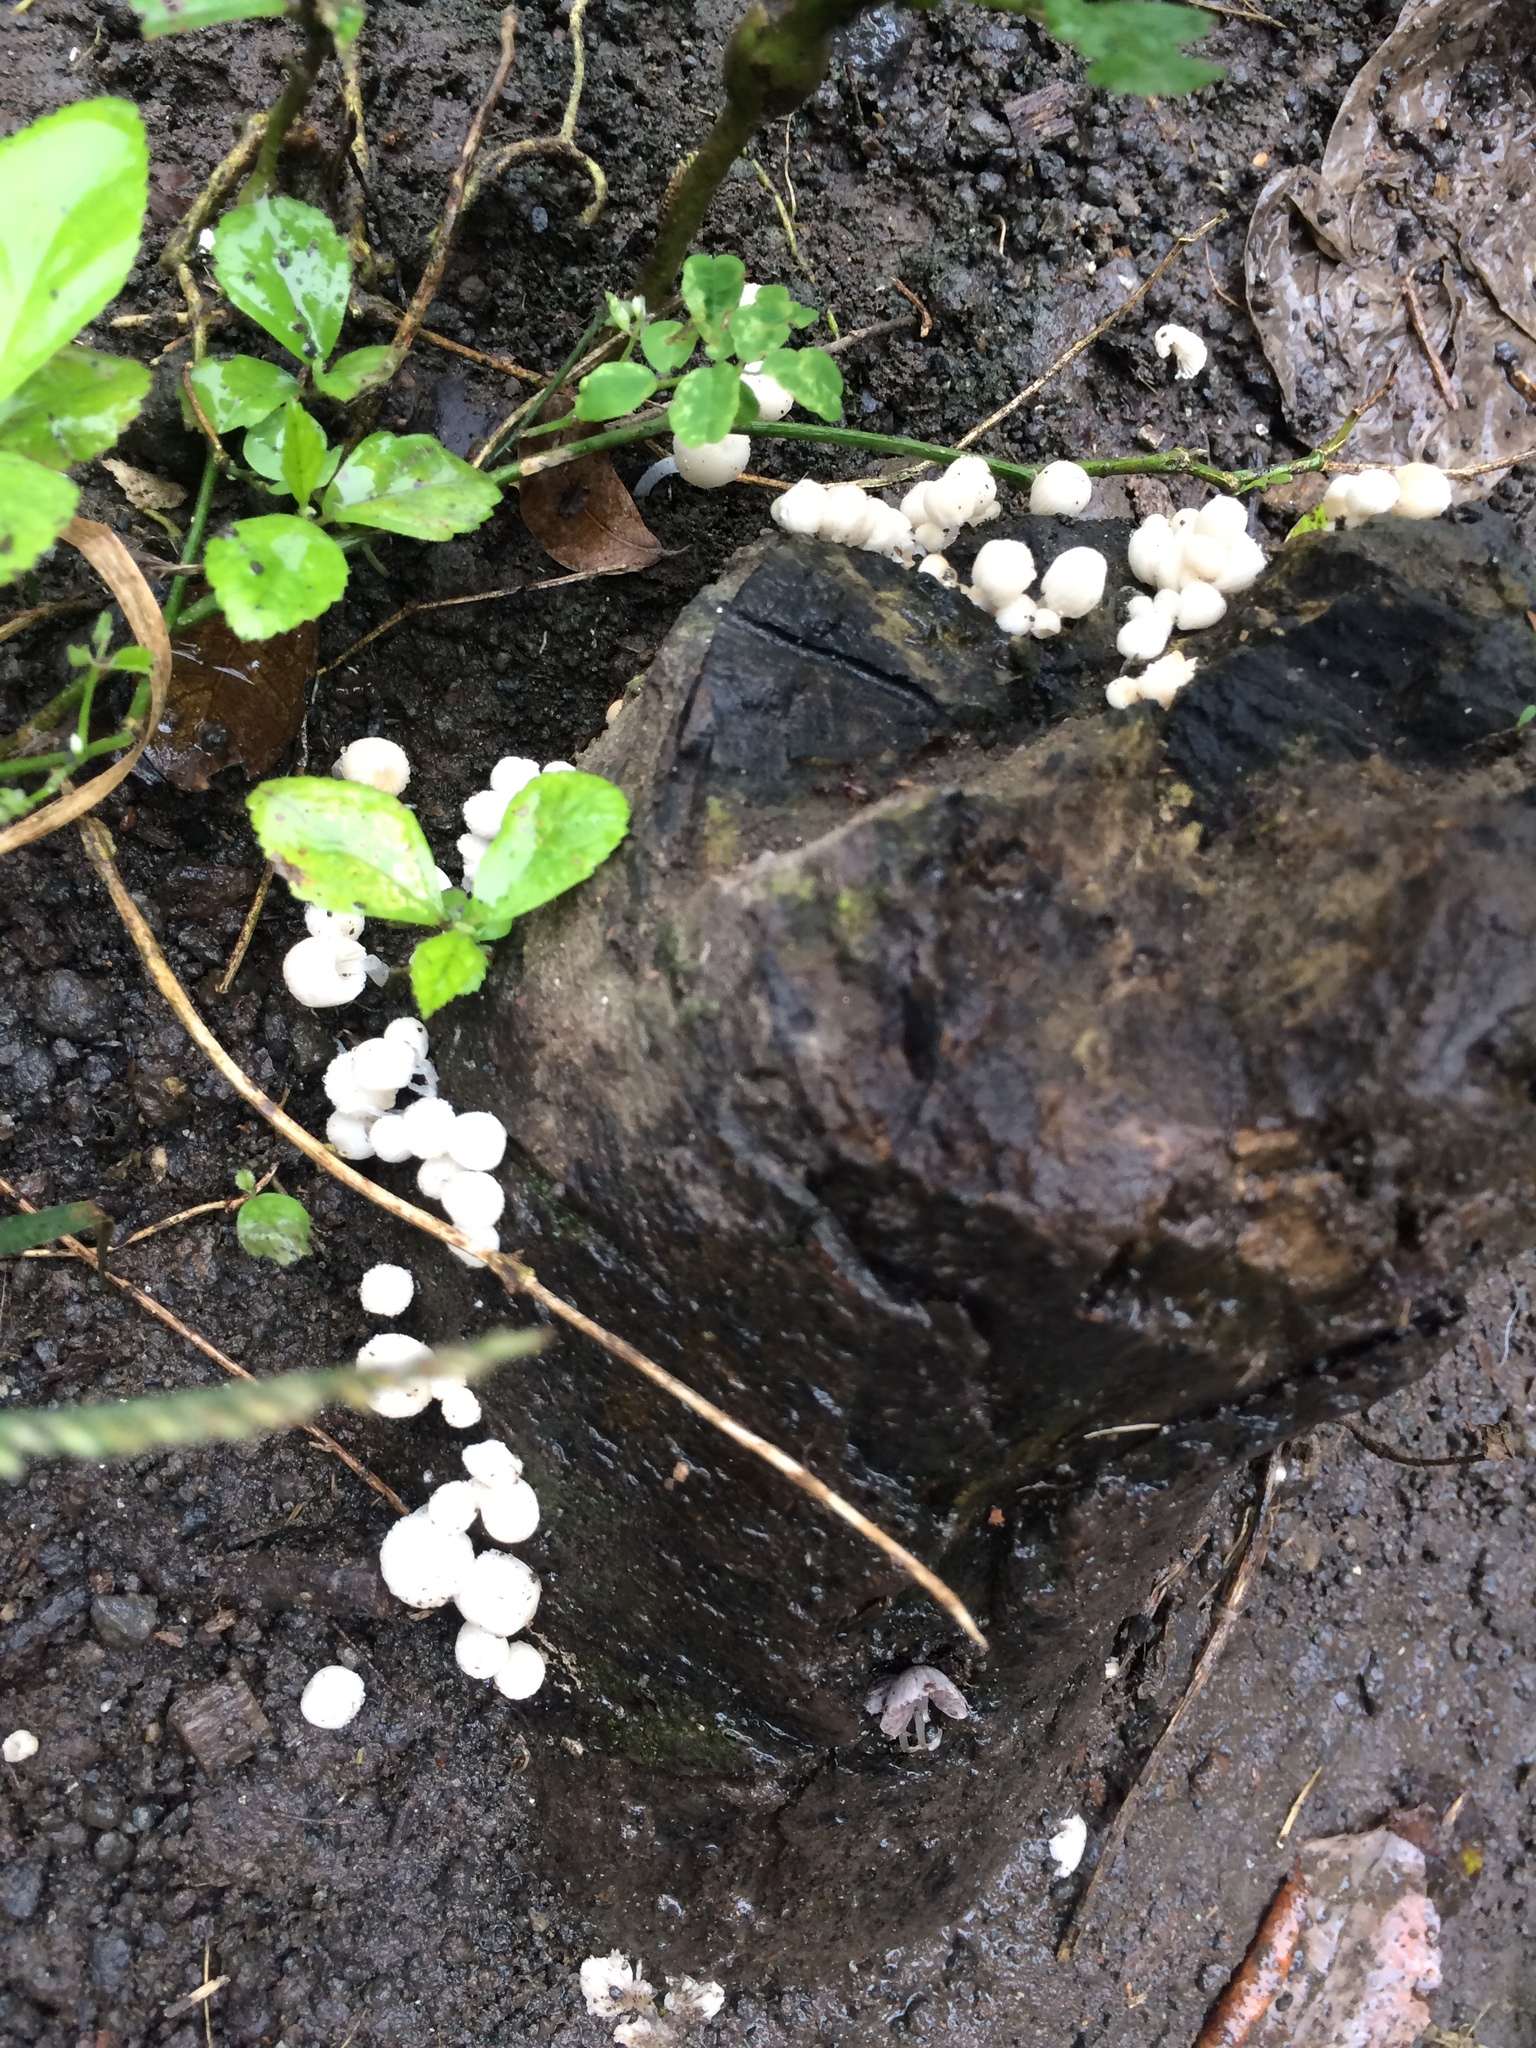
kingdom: Fungi
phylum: Basidiomycota
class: Agaricomycetes
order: Agaricales
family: Psathyrellaceae
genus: Coprinellus
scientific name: Coprinellus disseminatus
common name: Fairies' bonnets
